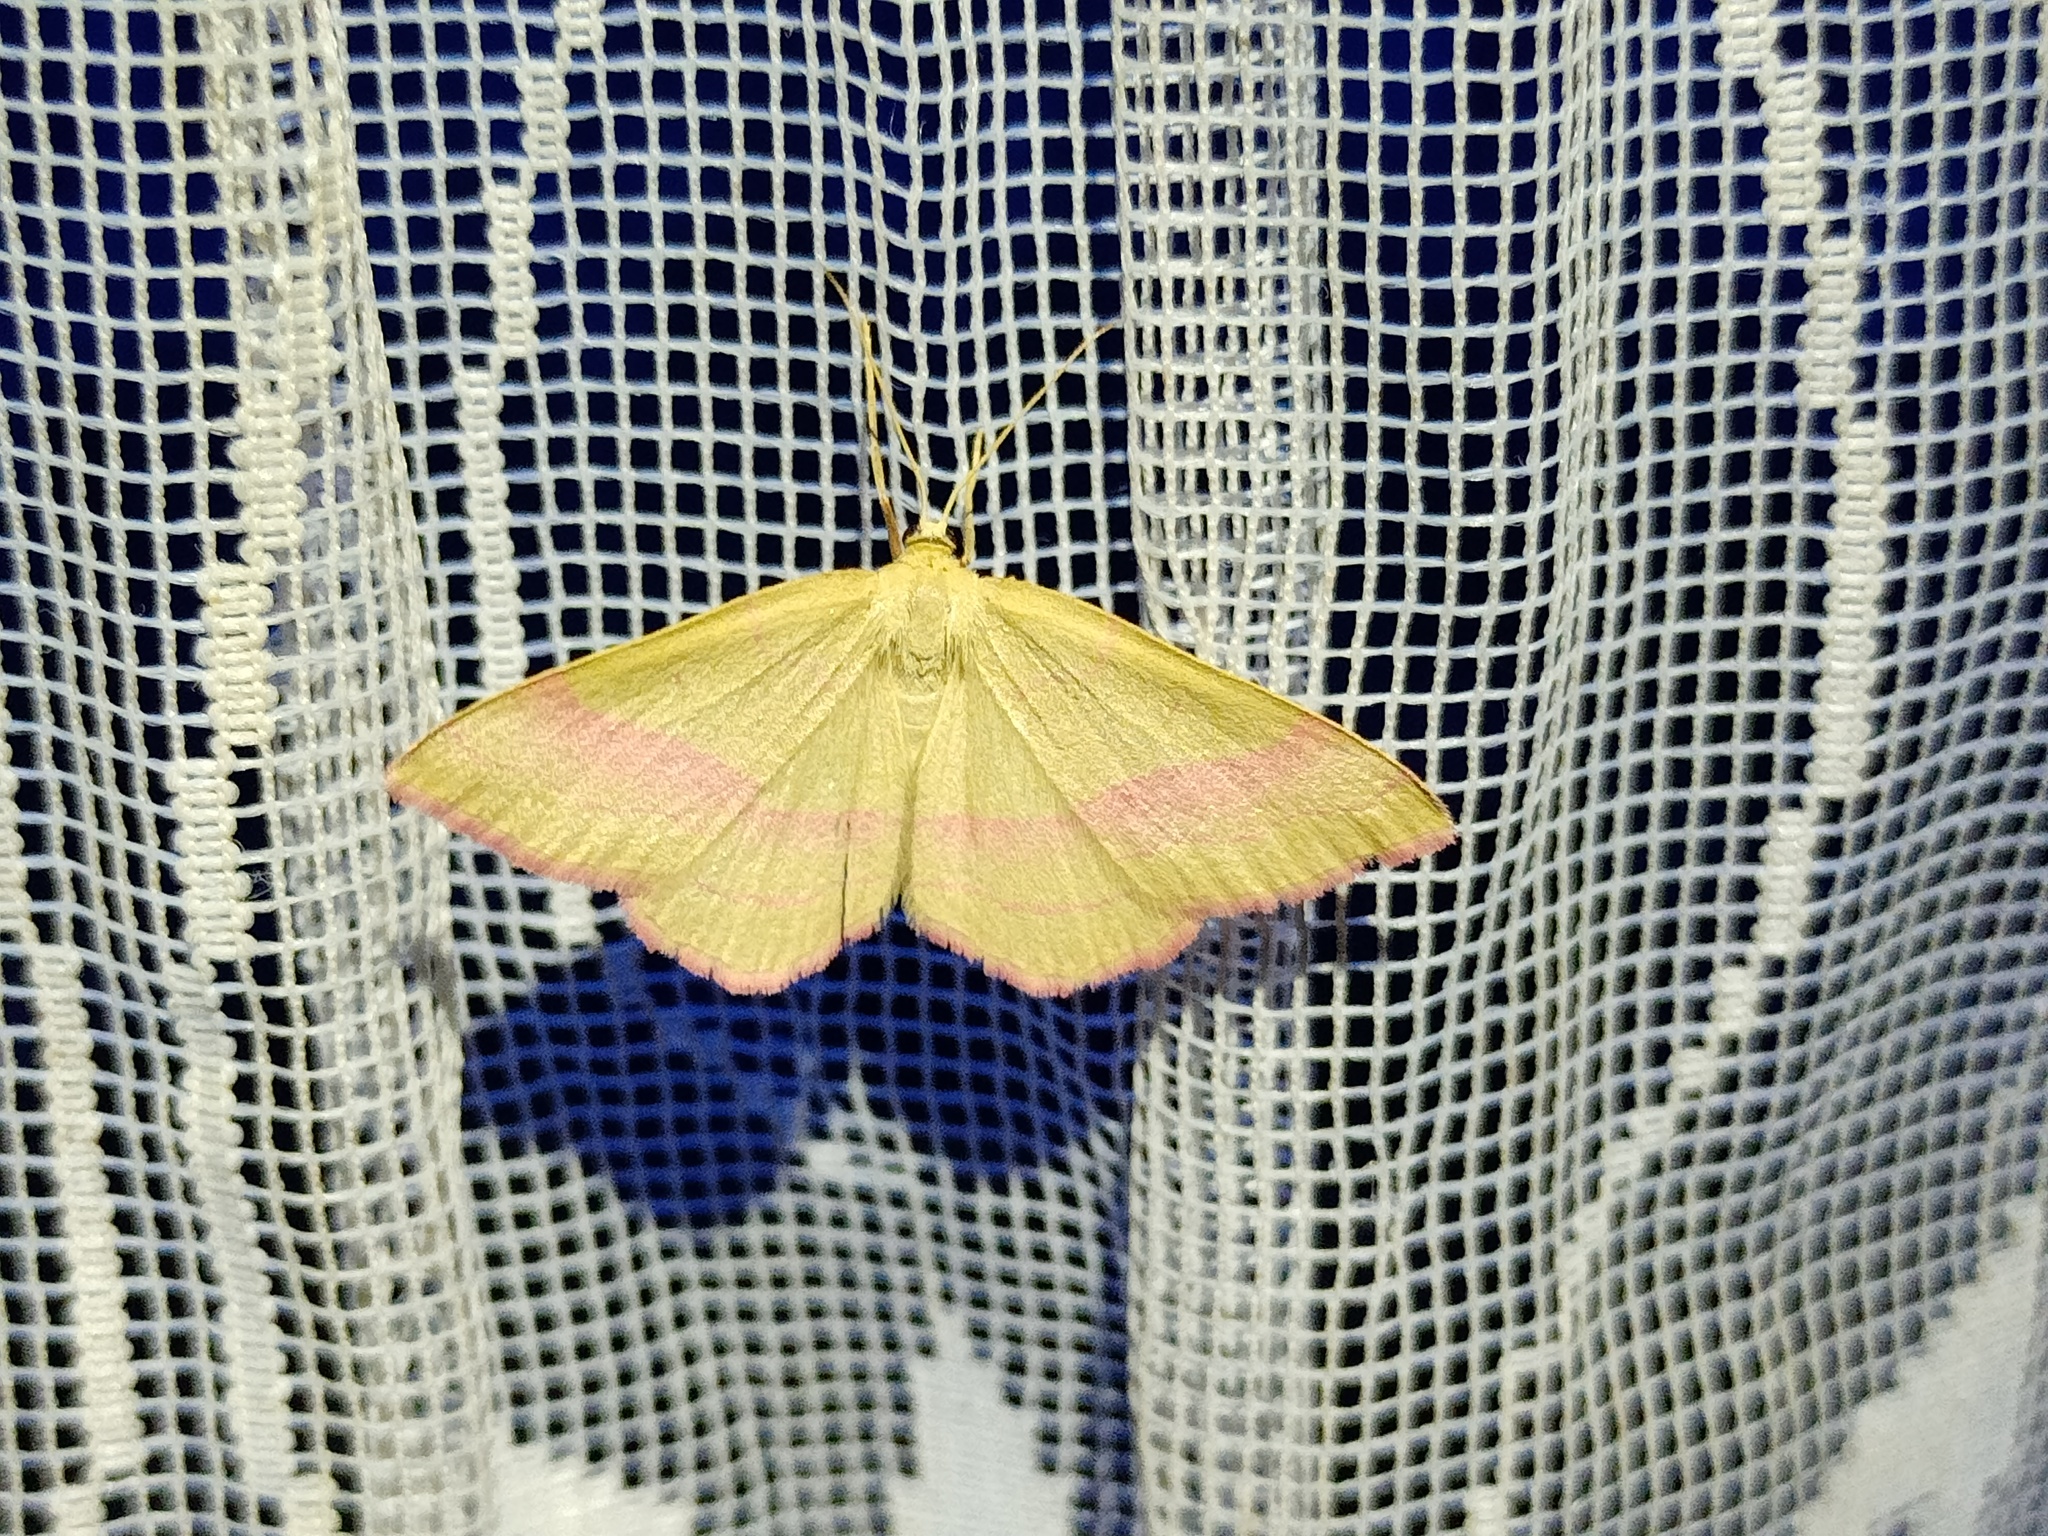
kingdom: Animalia
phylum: Arthropoda
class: Insecta
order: Lepidoptera
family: Geometridae
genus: Rhodostrophia
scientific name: Rhodostrophia vibicaria
